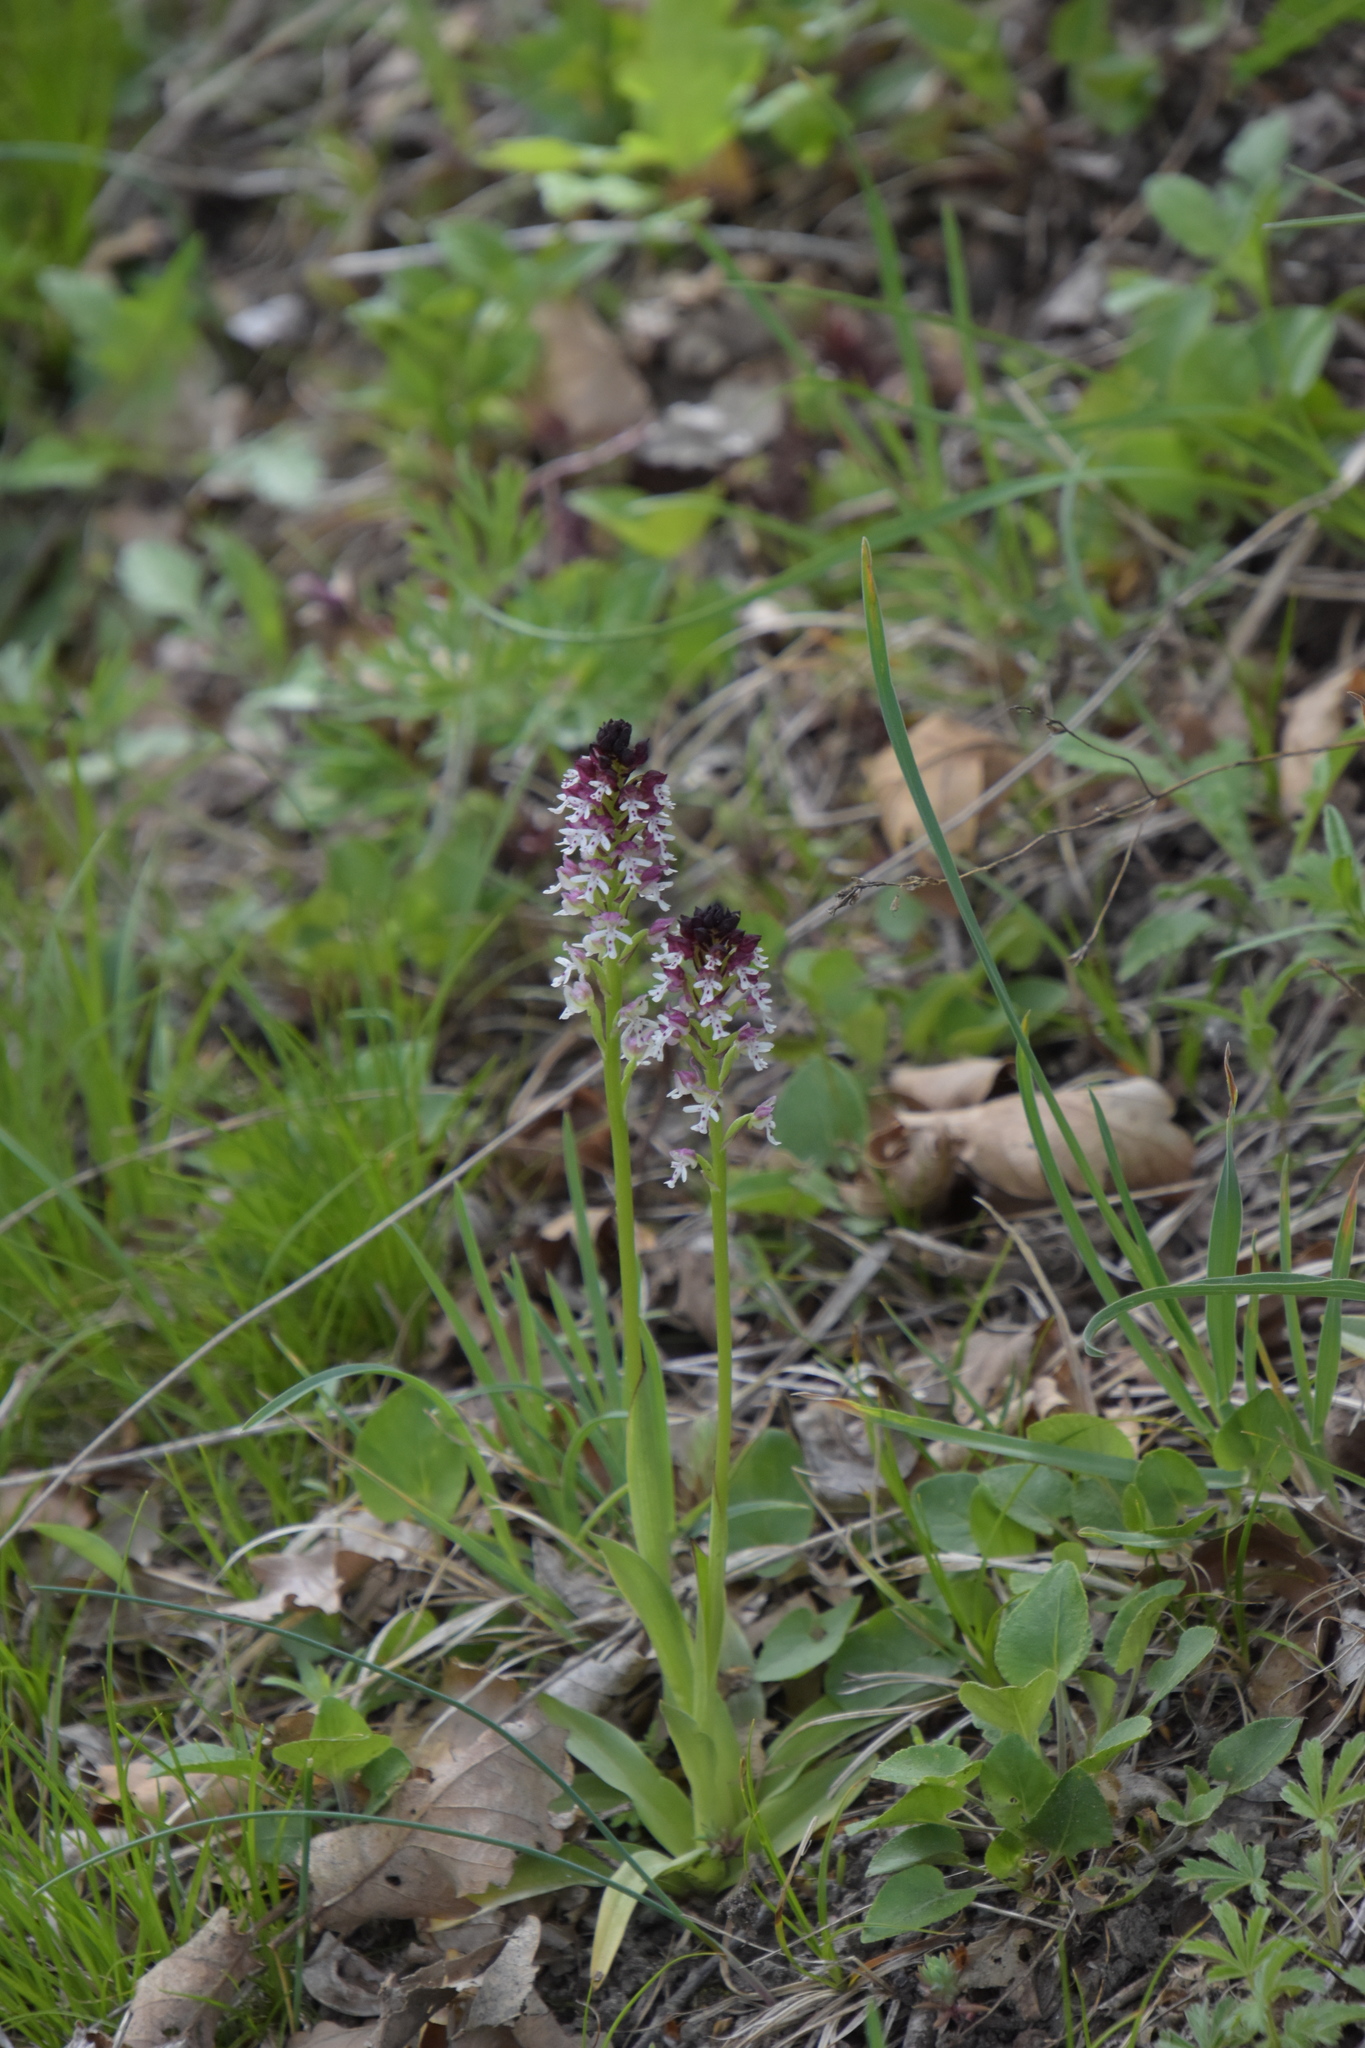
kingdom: Plantae
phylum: Tracheophyta
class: Liliopsida
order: Asparagales
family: Orchidaceae
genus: Neotinea
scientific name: Neotinea ustulata
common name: Burnt orchid
